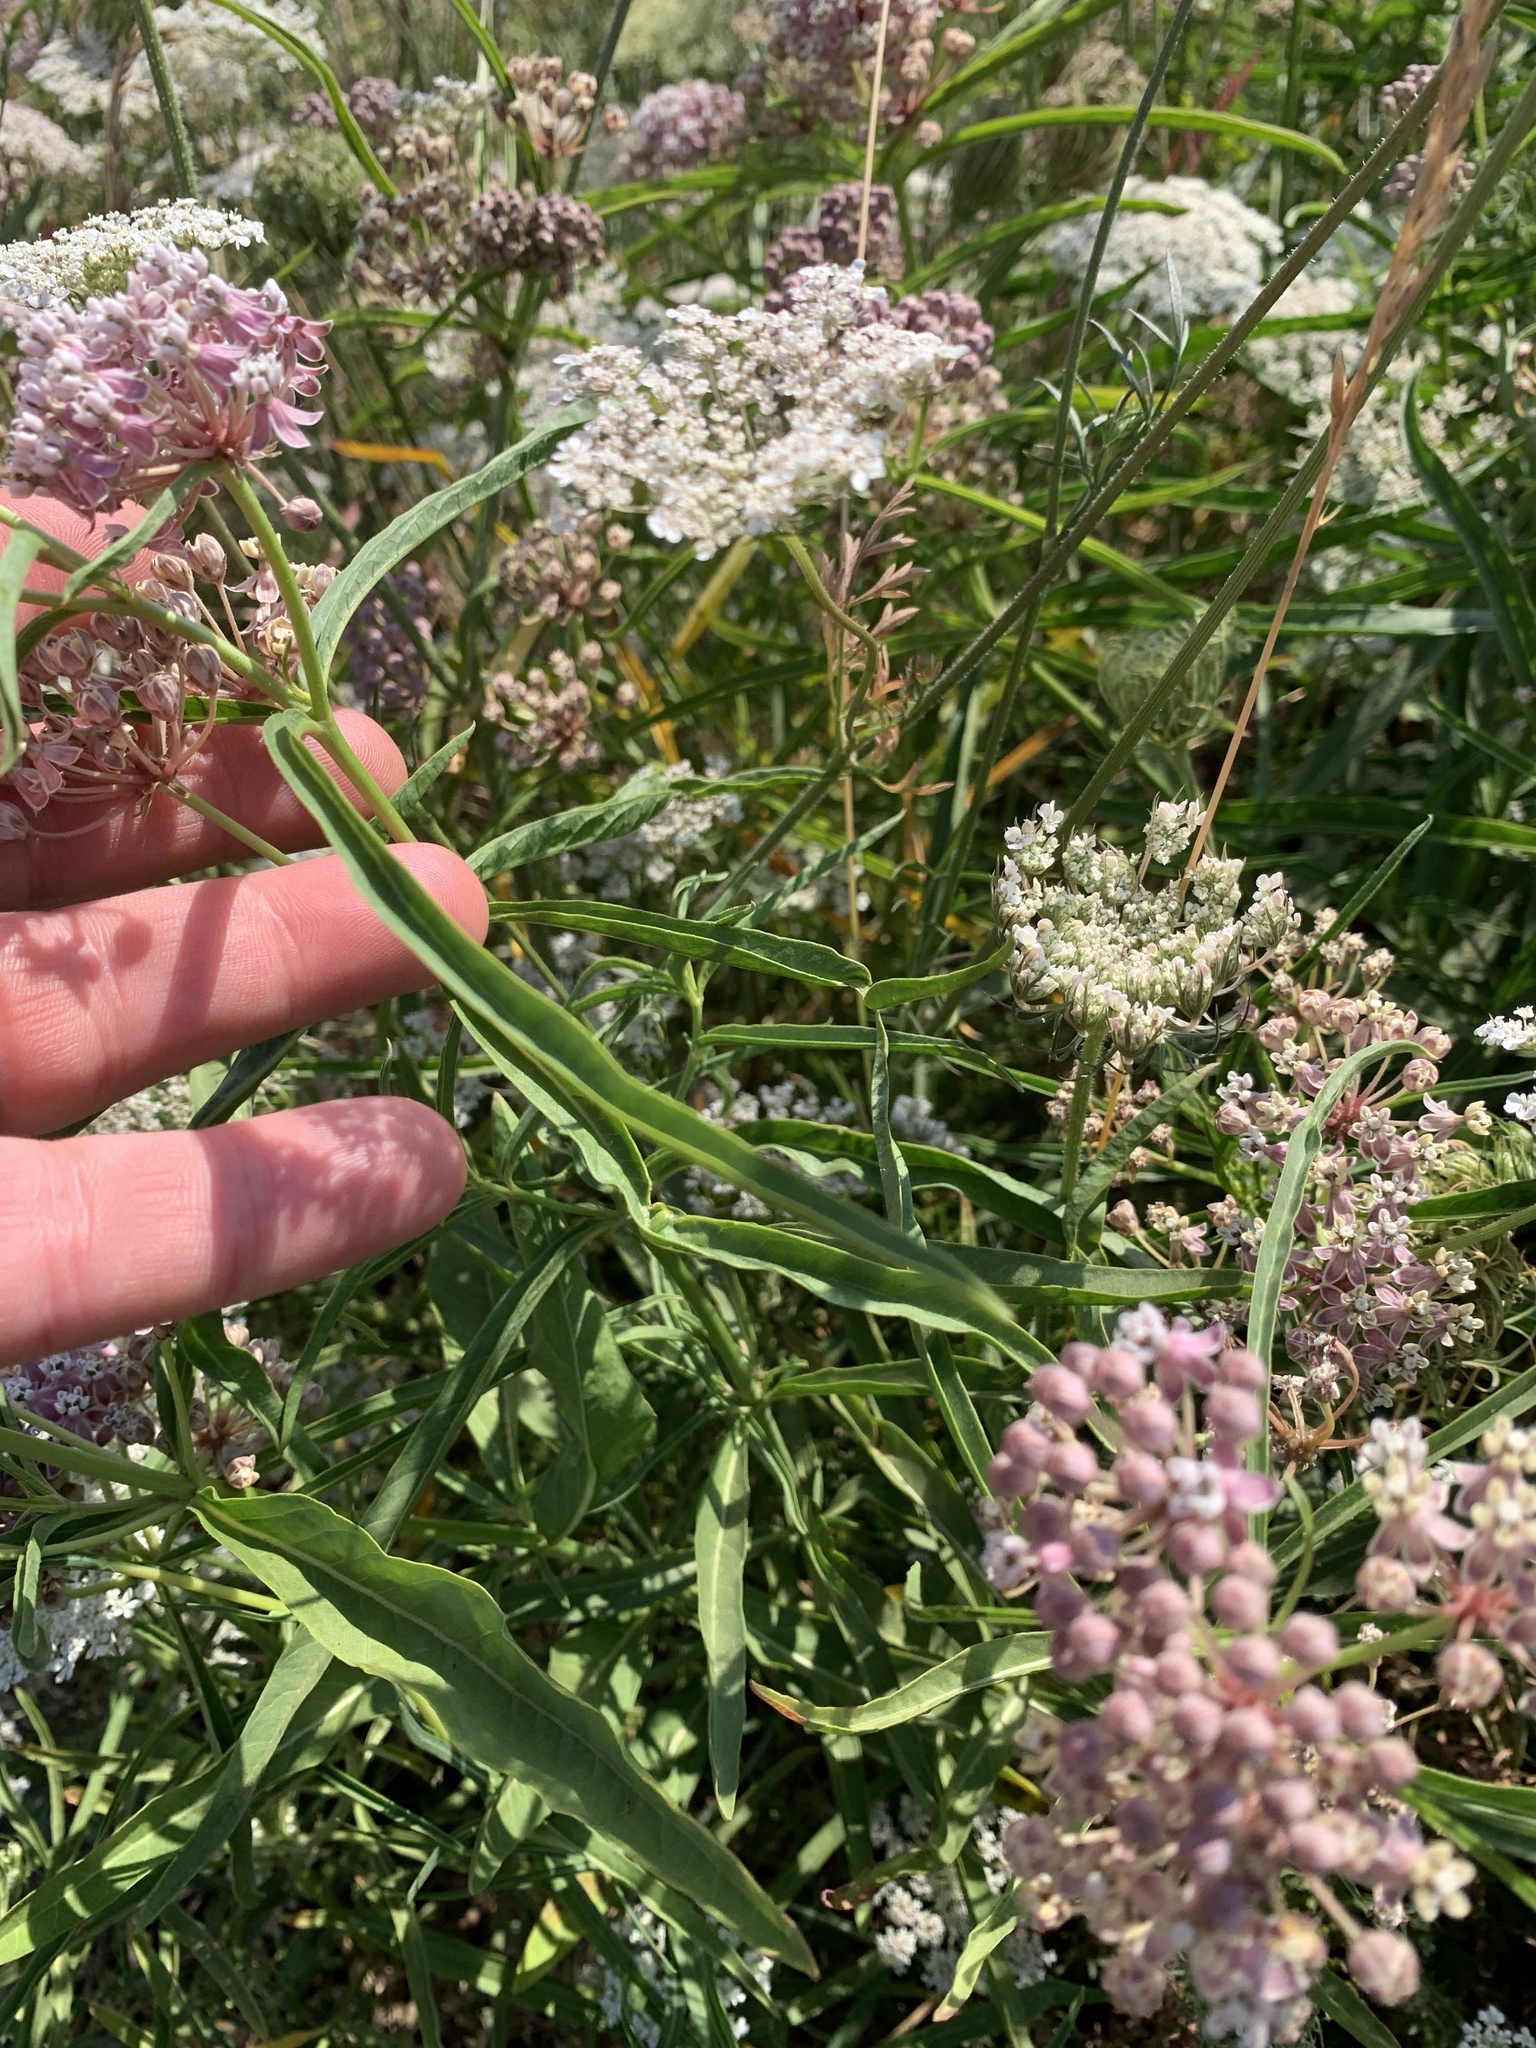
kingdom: Plantae
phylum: Tracheophyta
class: Magnoliopsida
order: Gentianales
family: Apocynaceae
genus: Asclepias
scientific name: Asclepias fascicularis
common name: Mexican milkweed
